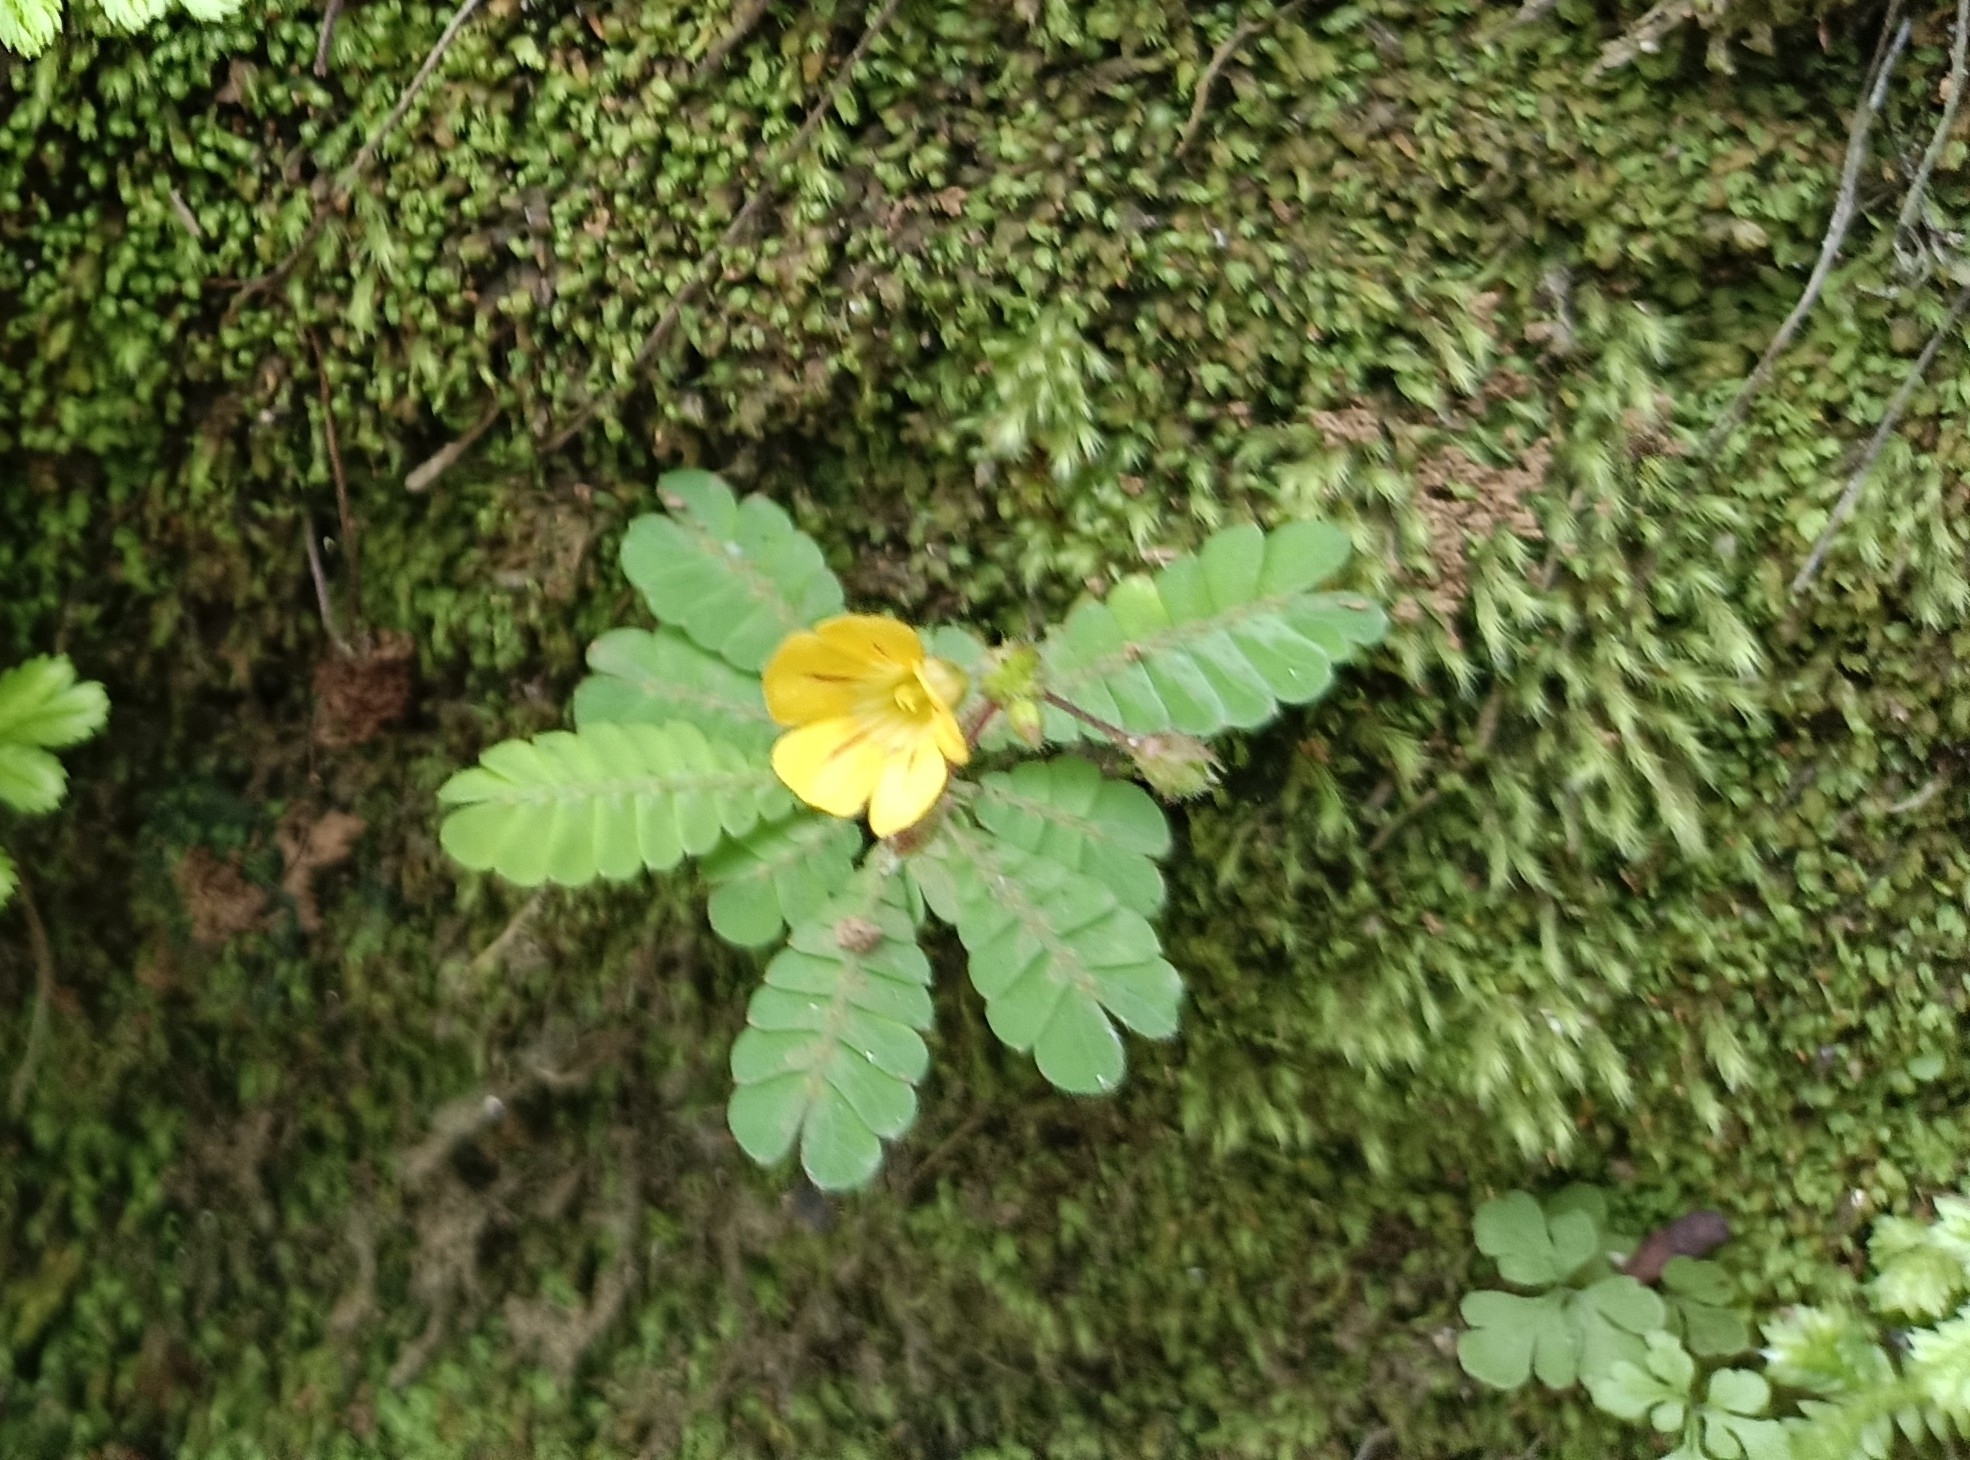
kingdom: Plantae
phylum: Tracheophyta
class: Magnoliopsida
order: Oxalidales
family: Oxalidaceae
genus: Biophytum
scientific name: Biophytum sensitivum
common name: Lifeplant
